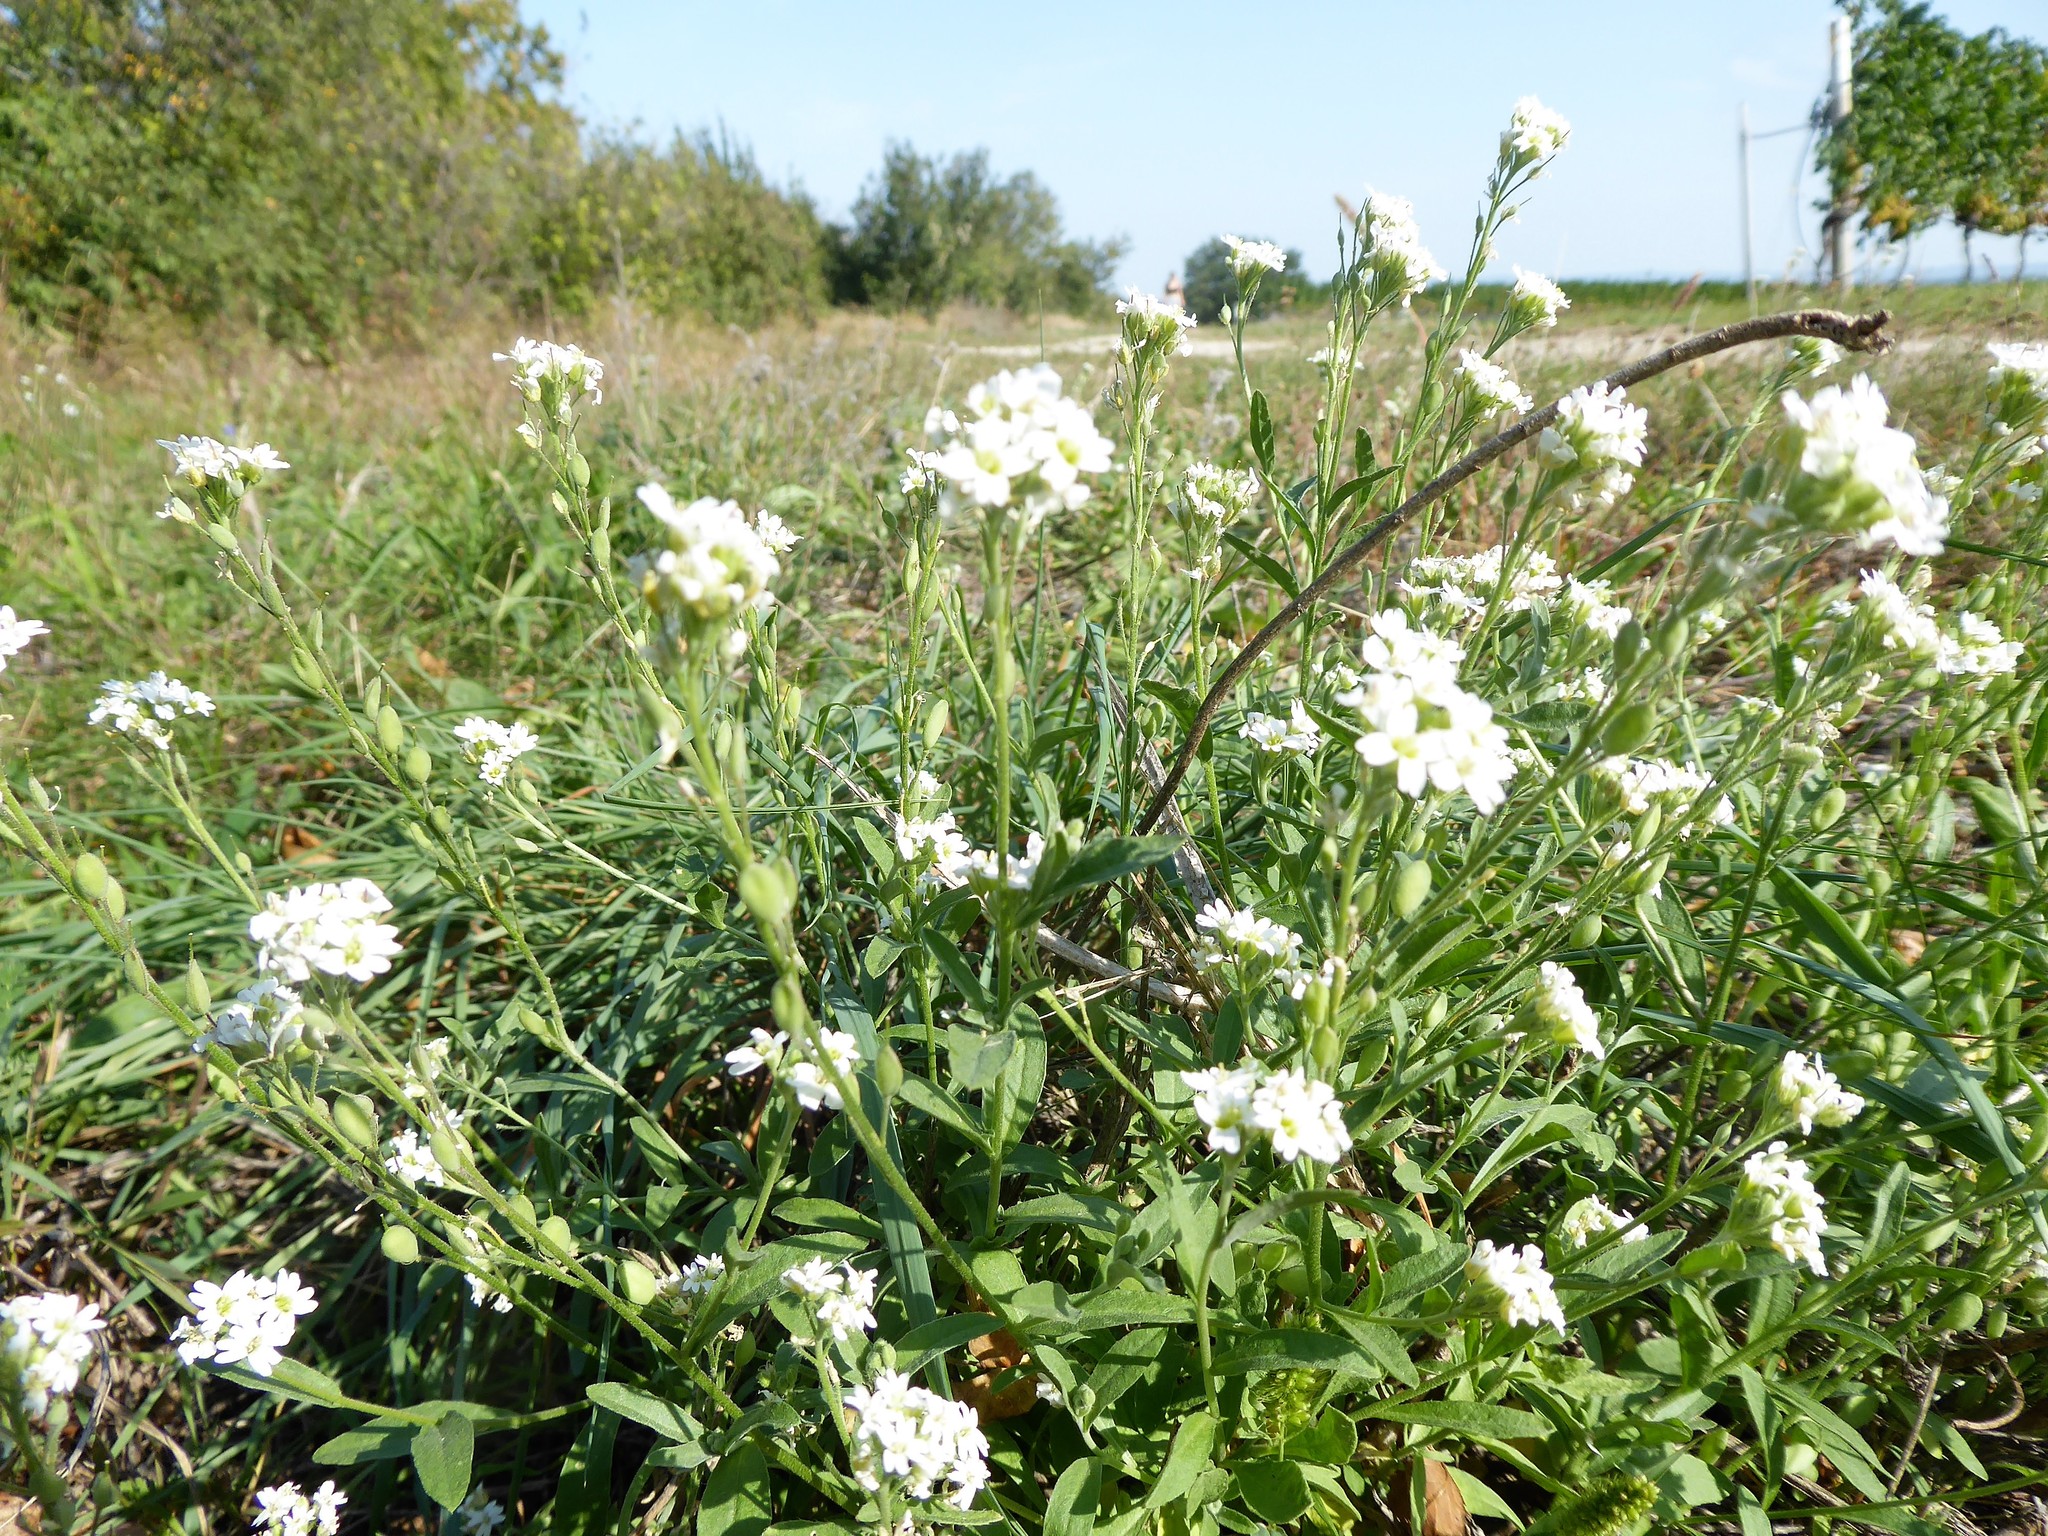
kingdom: Plantae
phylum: Tracheophyta
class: Magnoliopsida
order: Brassicales
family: Brassicaceae
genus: Berteroa
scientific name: Berteroa incana
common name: Hoary alison
